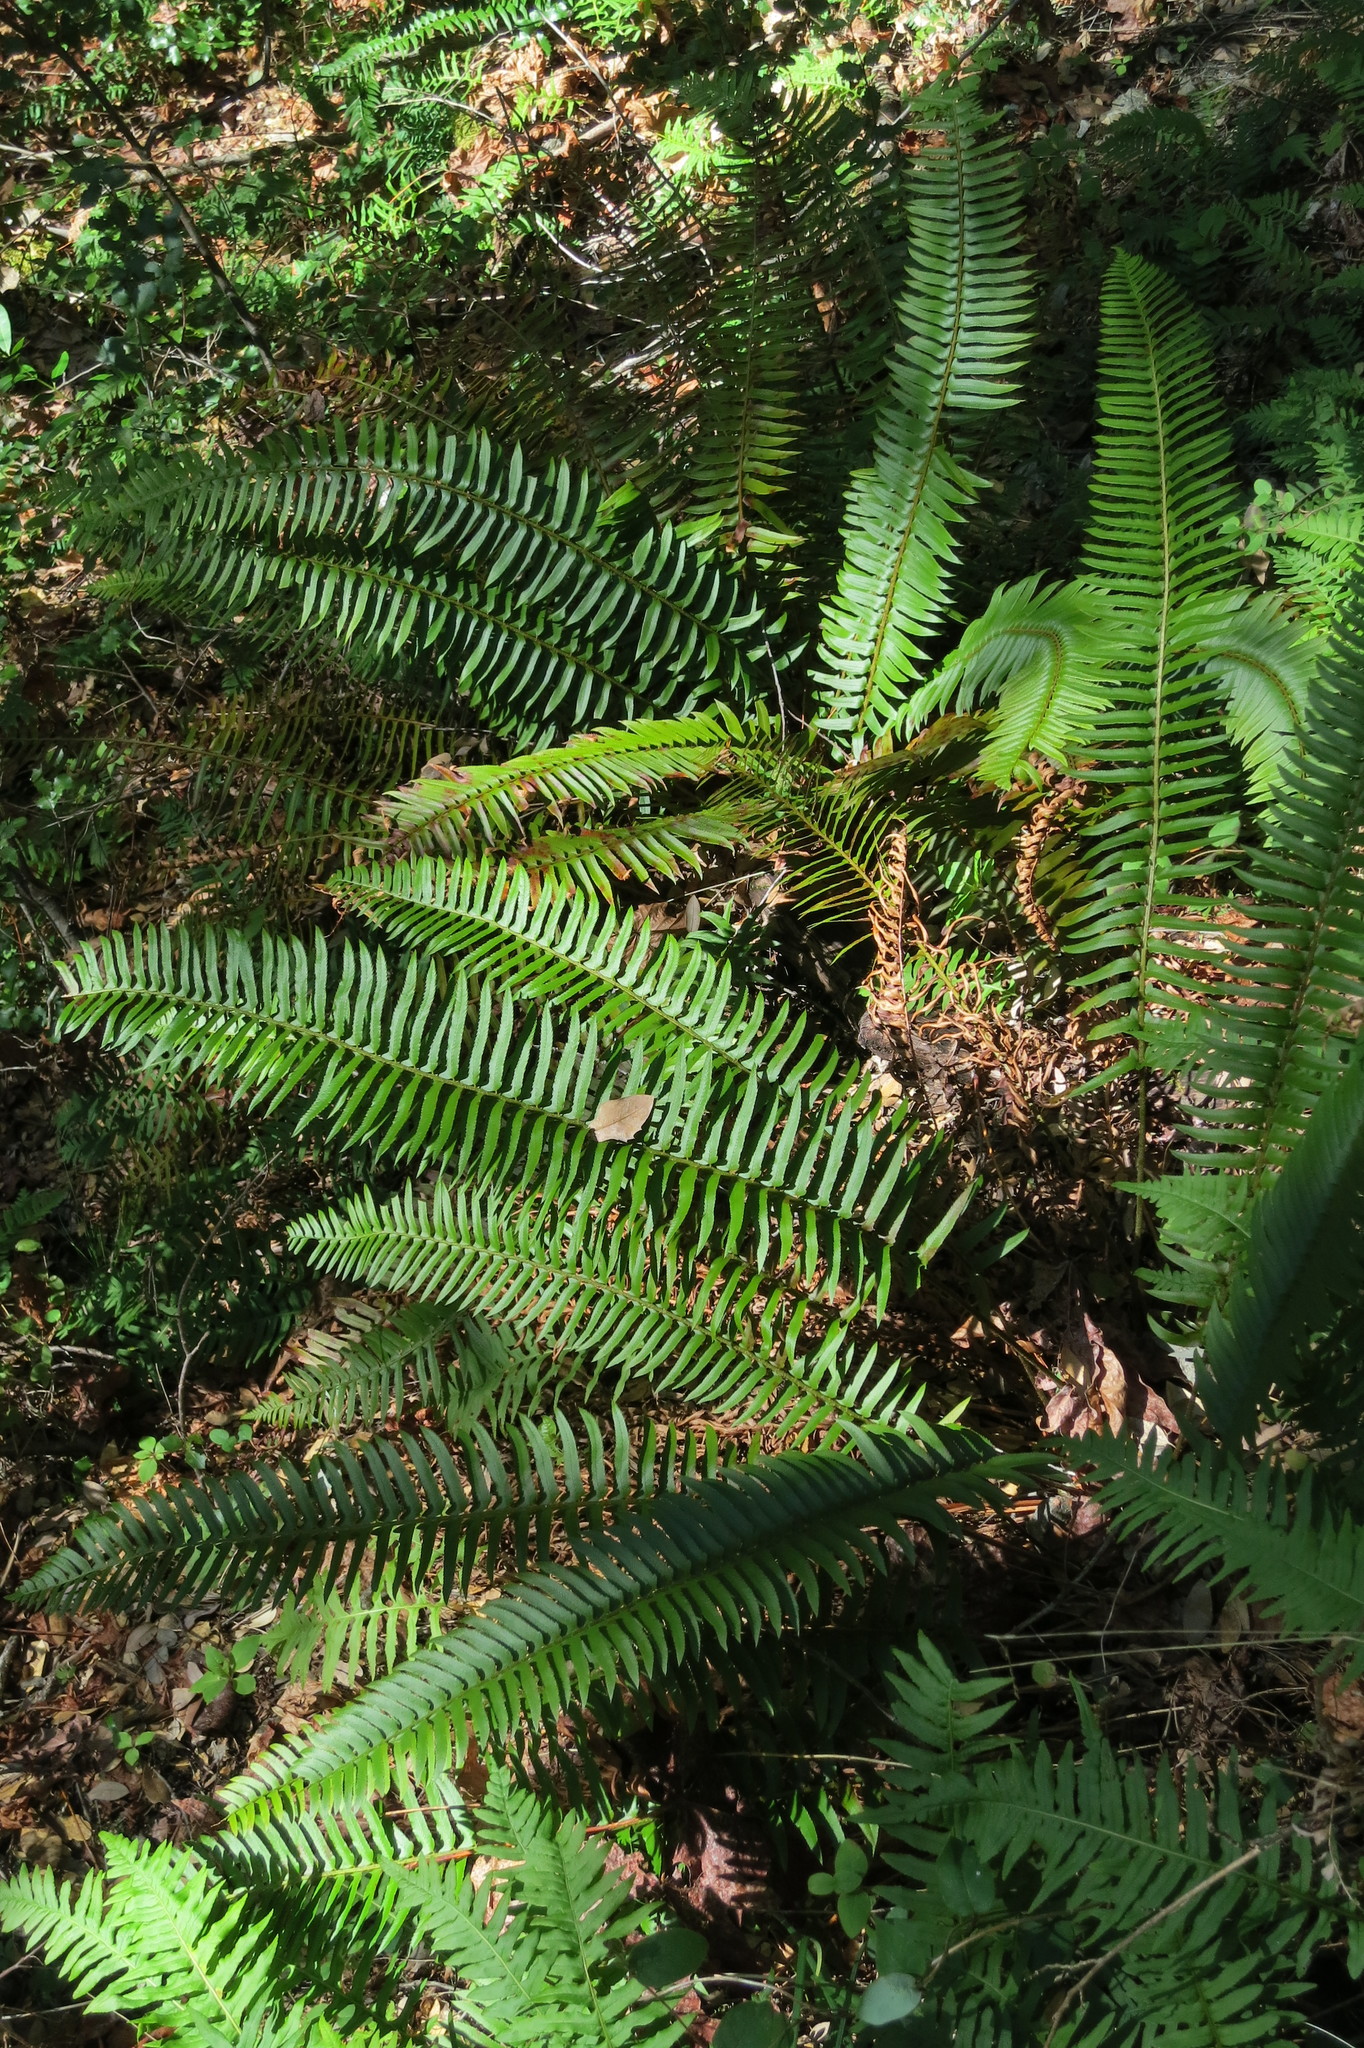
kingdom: Plantae
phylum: Tracheophyta
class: Polypodiopsida
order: Polypodiales
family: Dryopteridaceae
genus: Polystichum
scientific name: Polystichum munitum
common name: Western sword-fern
